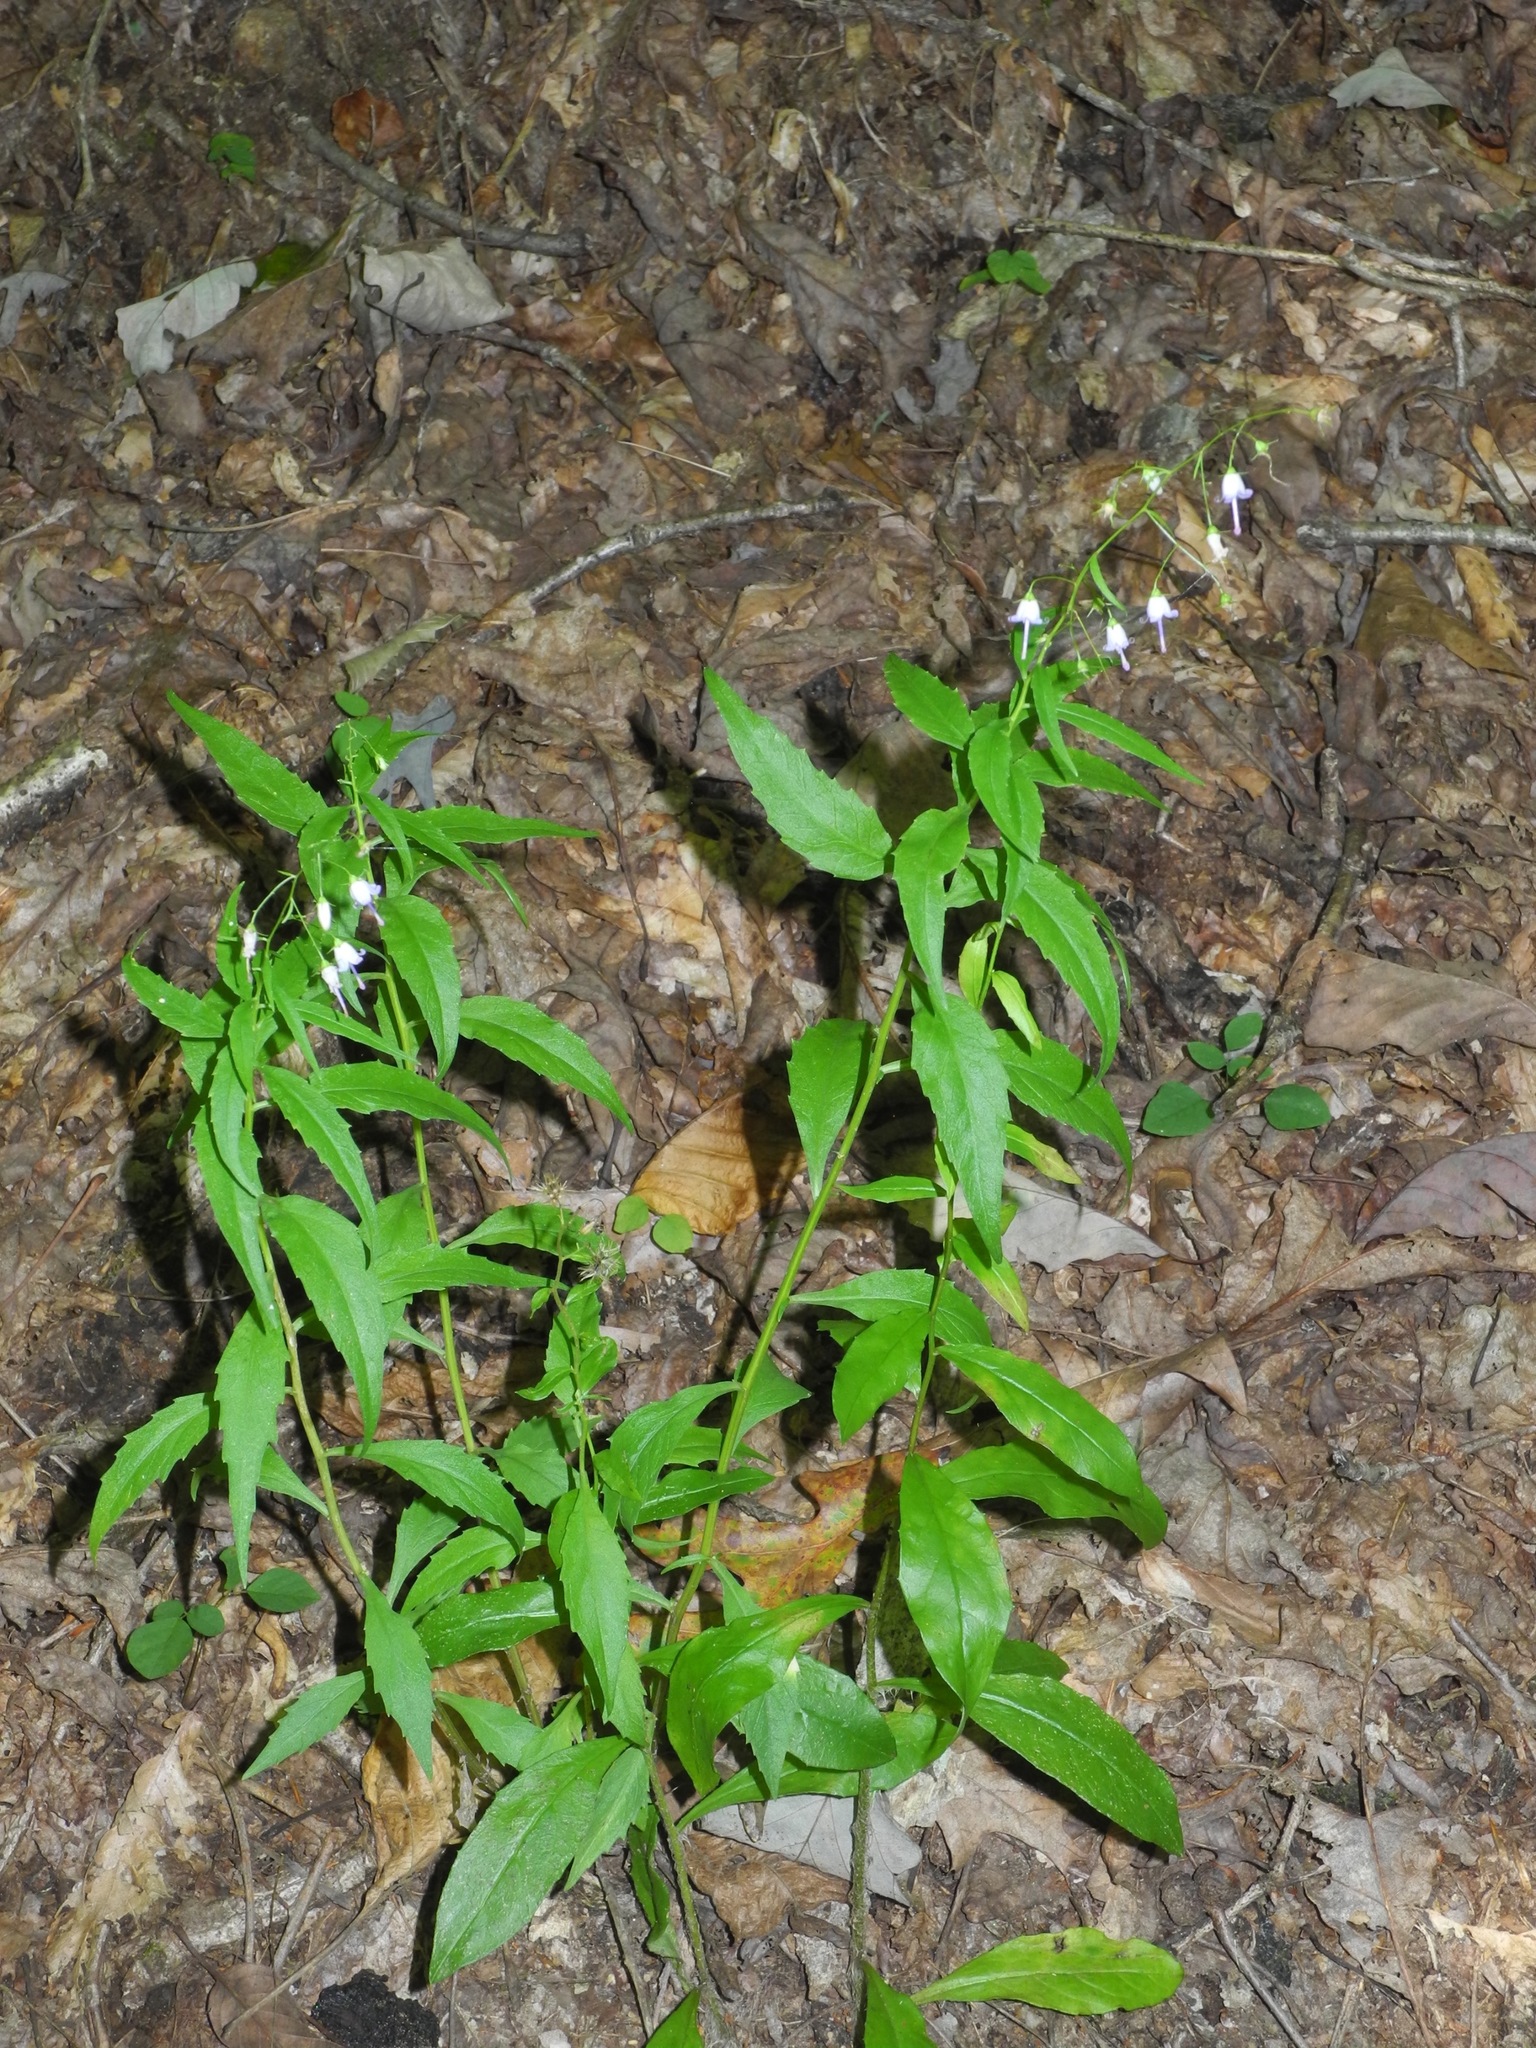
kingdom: Plantae
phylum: Tracheophyta
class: Magnoliopsida
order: Asterales
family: Campanulaceae
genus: Campanula
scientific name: Campanula divaricata
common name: Appalachian bellflower
